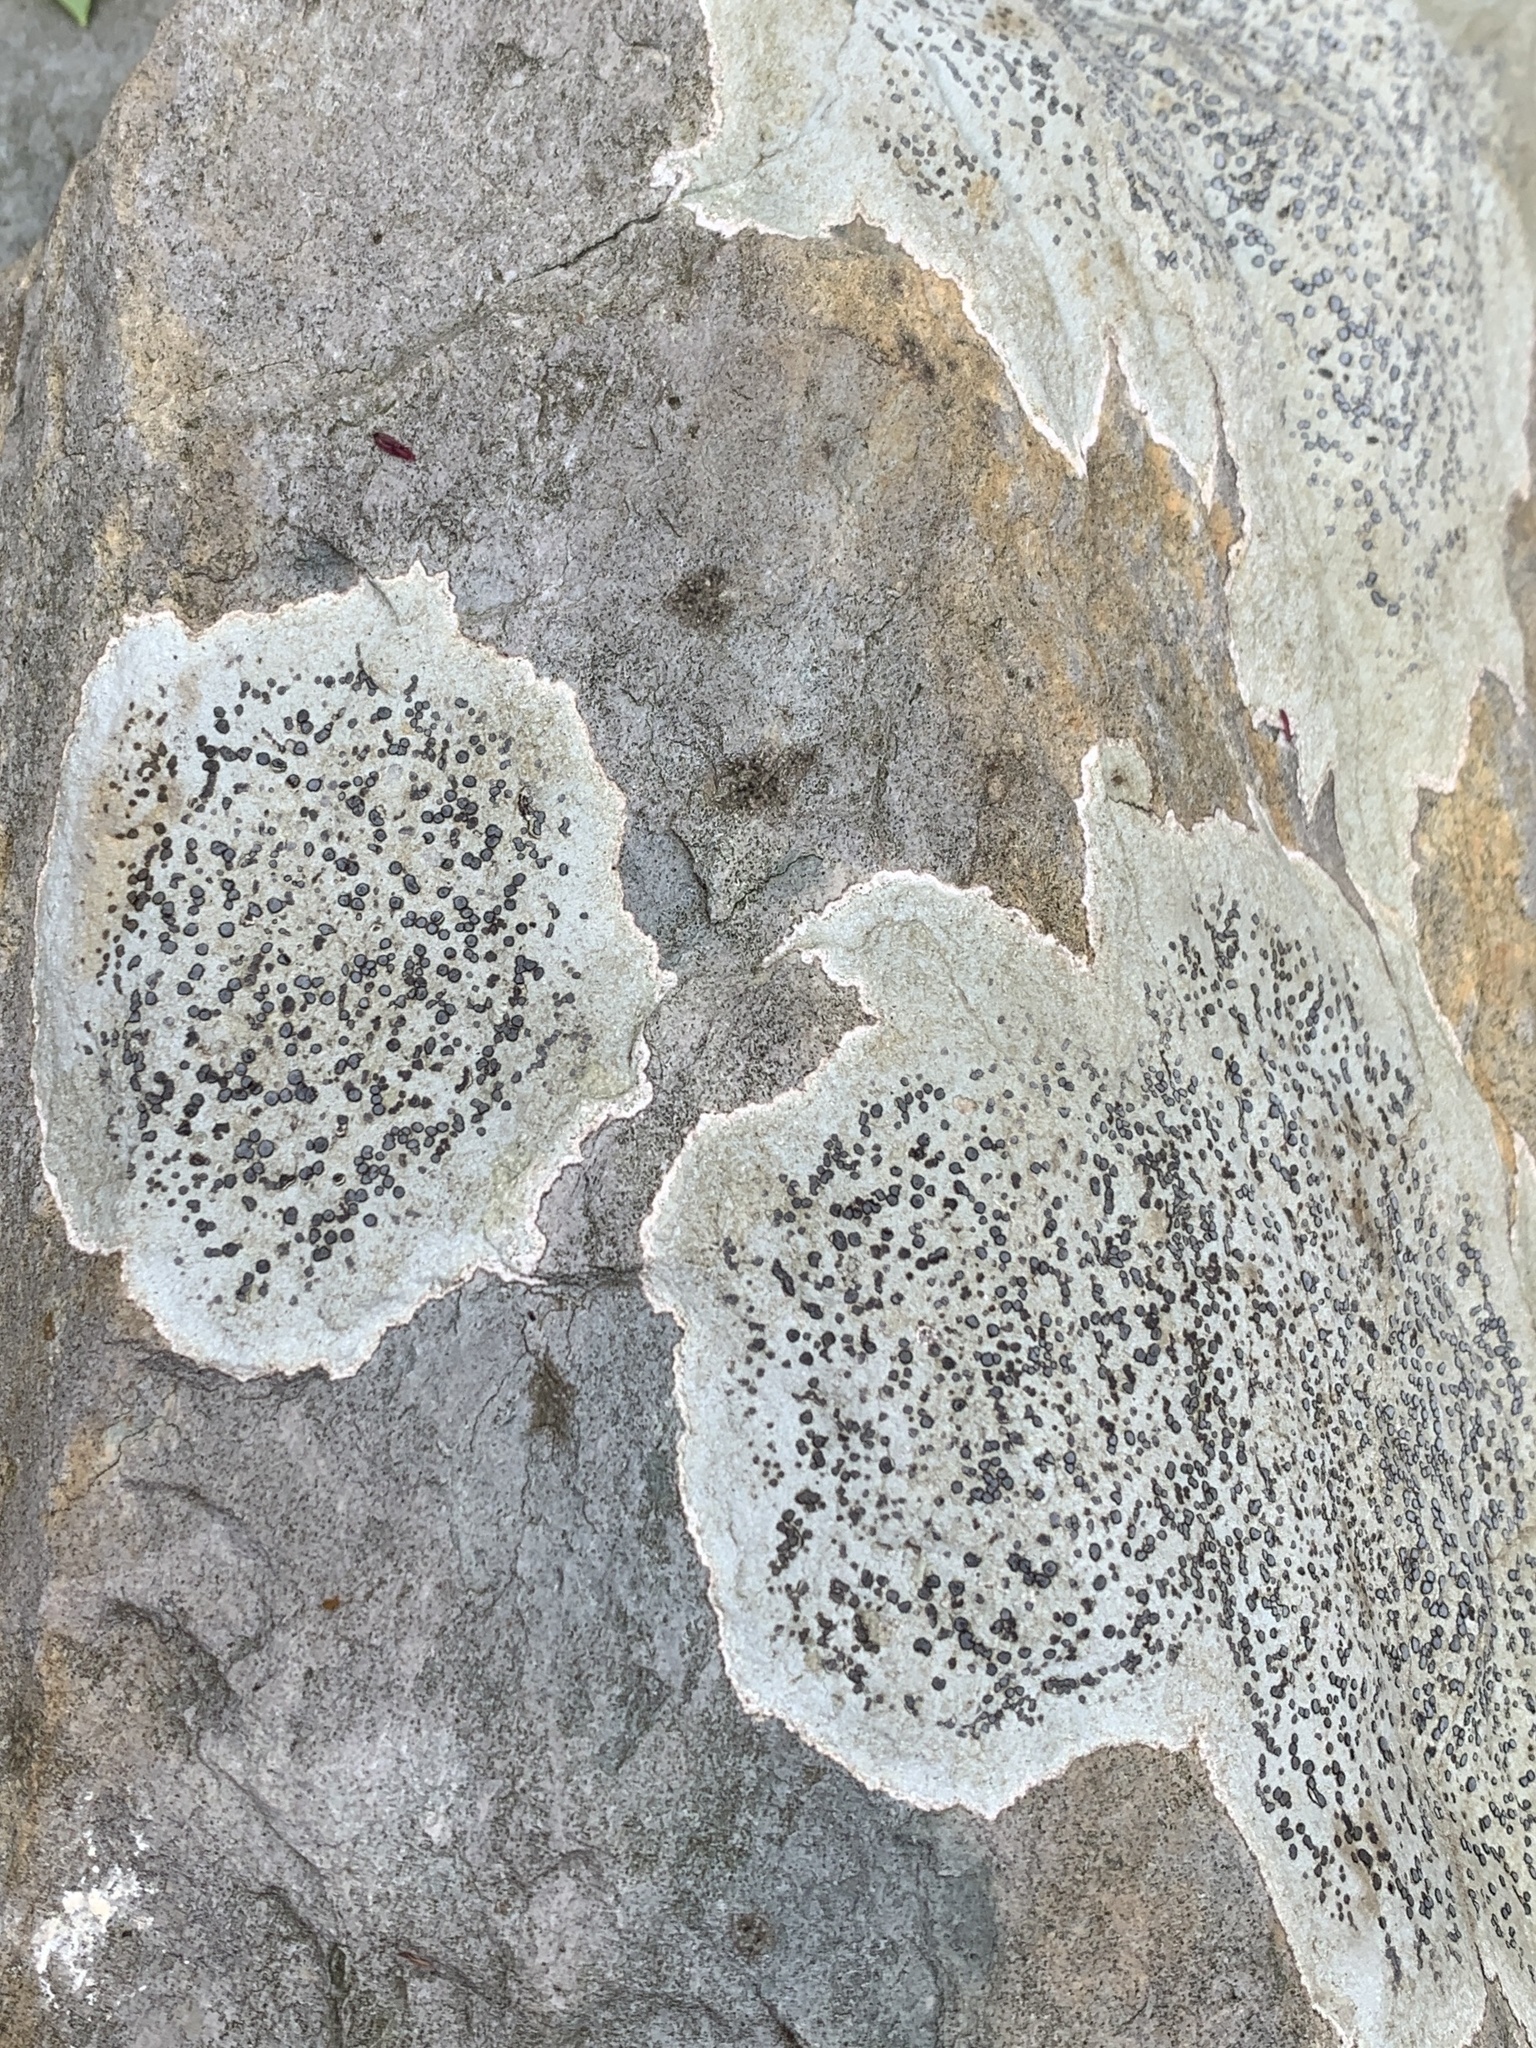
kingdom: Fungi
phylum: Ascomycota
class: Lecanoromycetes
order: Lecideales
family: Lecideaceae
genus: Porpidia
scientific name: Porpidia albocaerulescens
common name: Smokey-eyed boulder lichen
